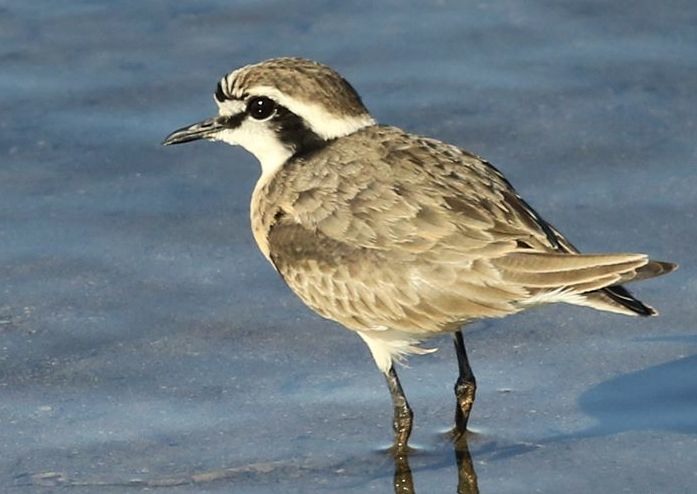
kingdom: Animalia
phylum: Chordata
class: Aves
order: Charadriiformes
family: Charadriidae
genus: Anarhynchus
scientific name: Anarhynchus
